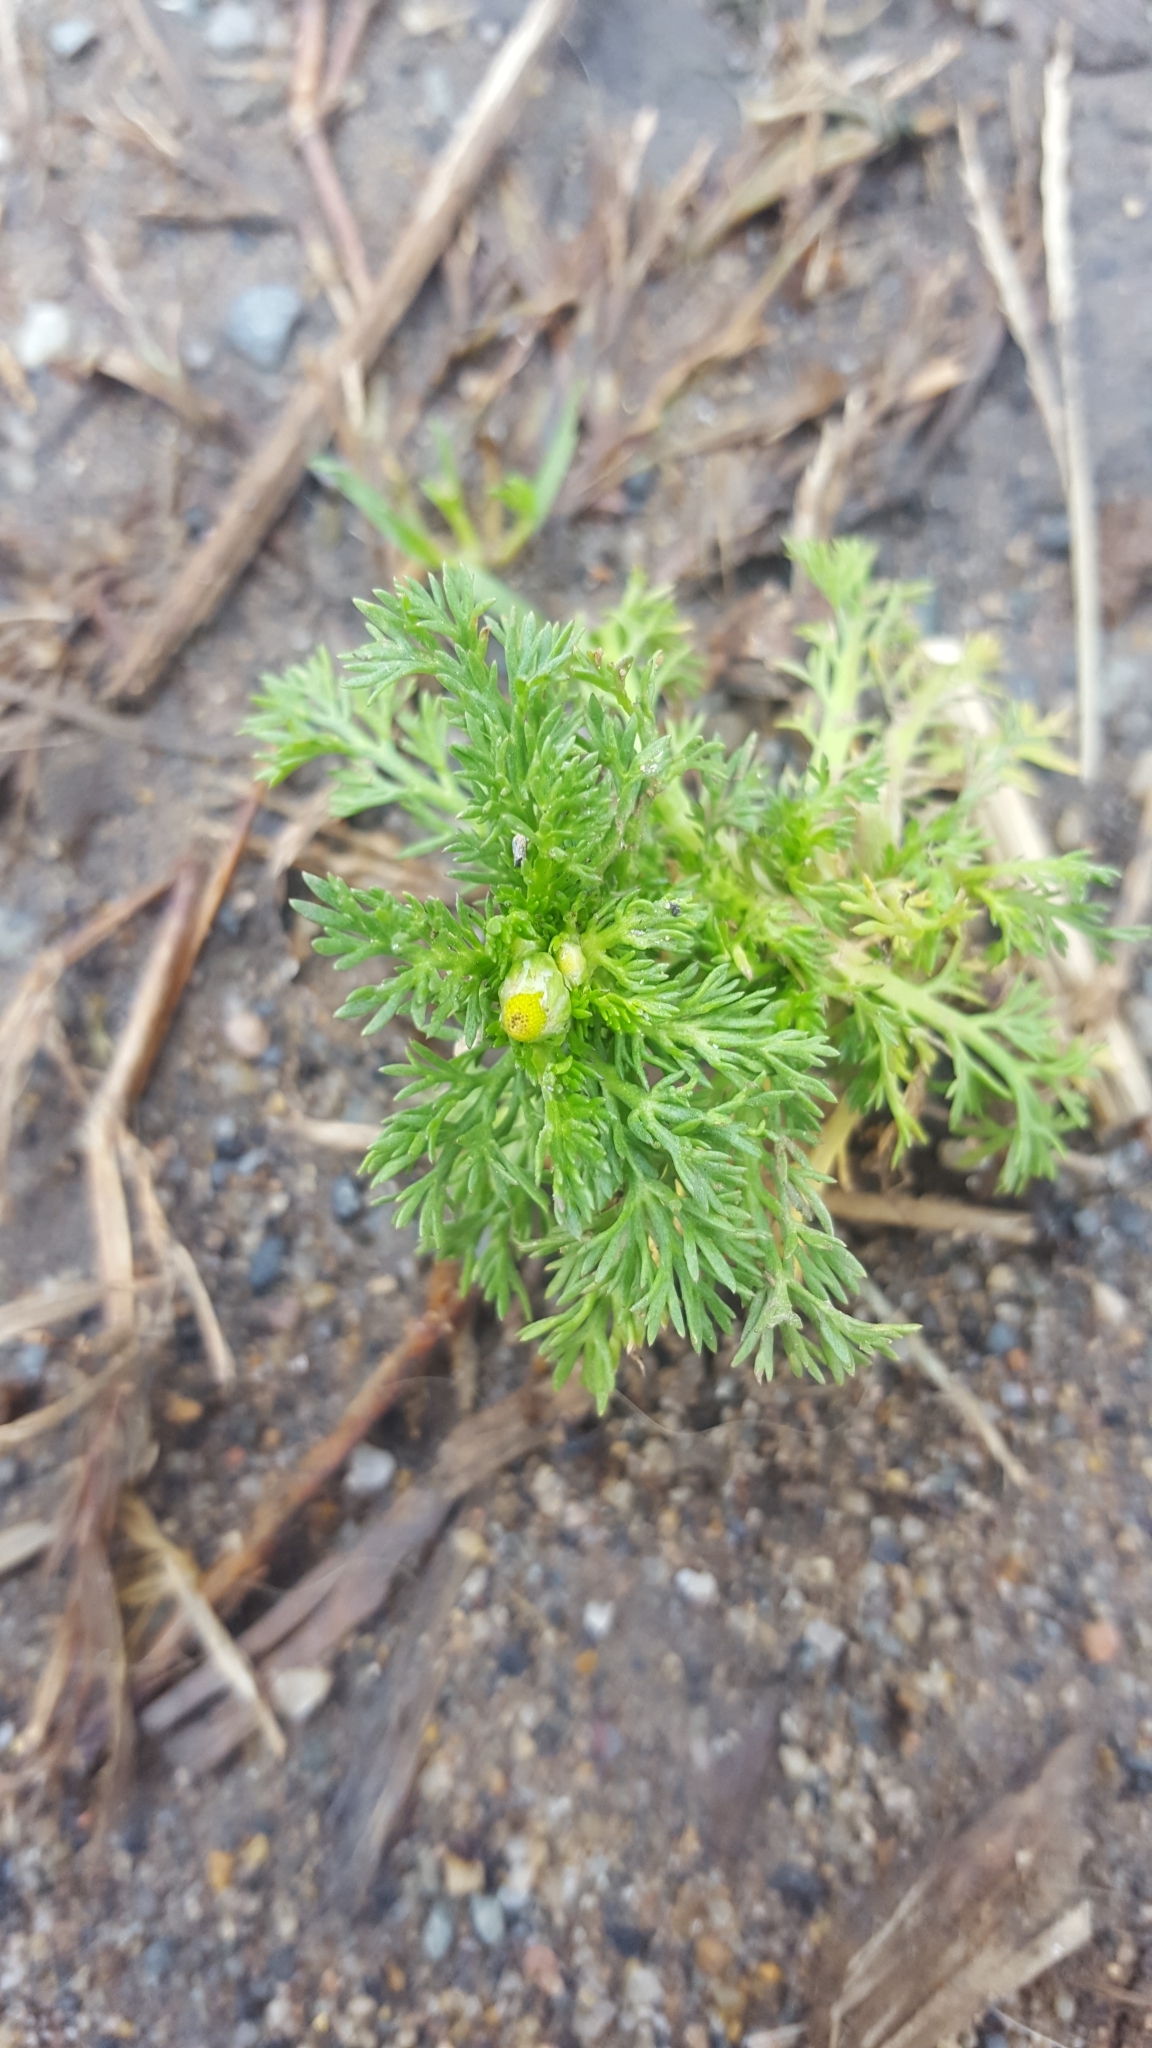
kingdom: Plantae
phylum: Tracheophyta
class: Magnoliopsida
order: Asterales
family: Asteraceae
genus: Matricaria
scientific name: Matricaria discoidea
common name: Disc mayweed
